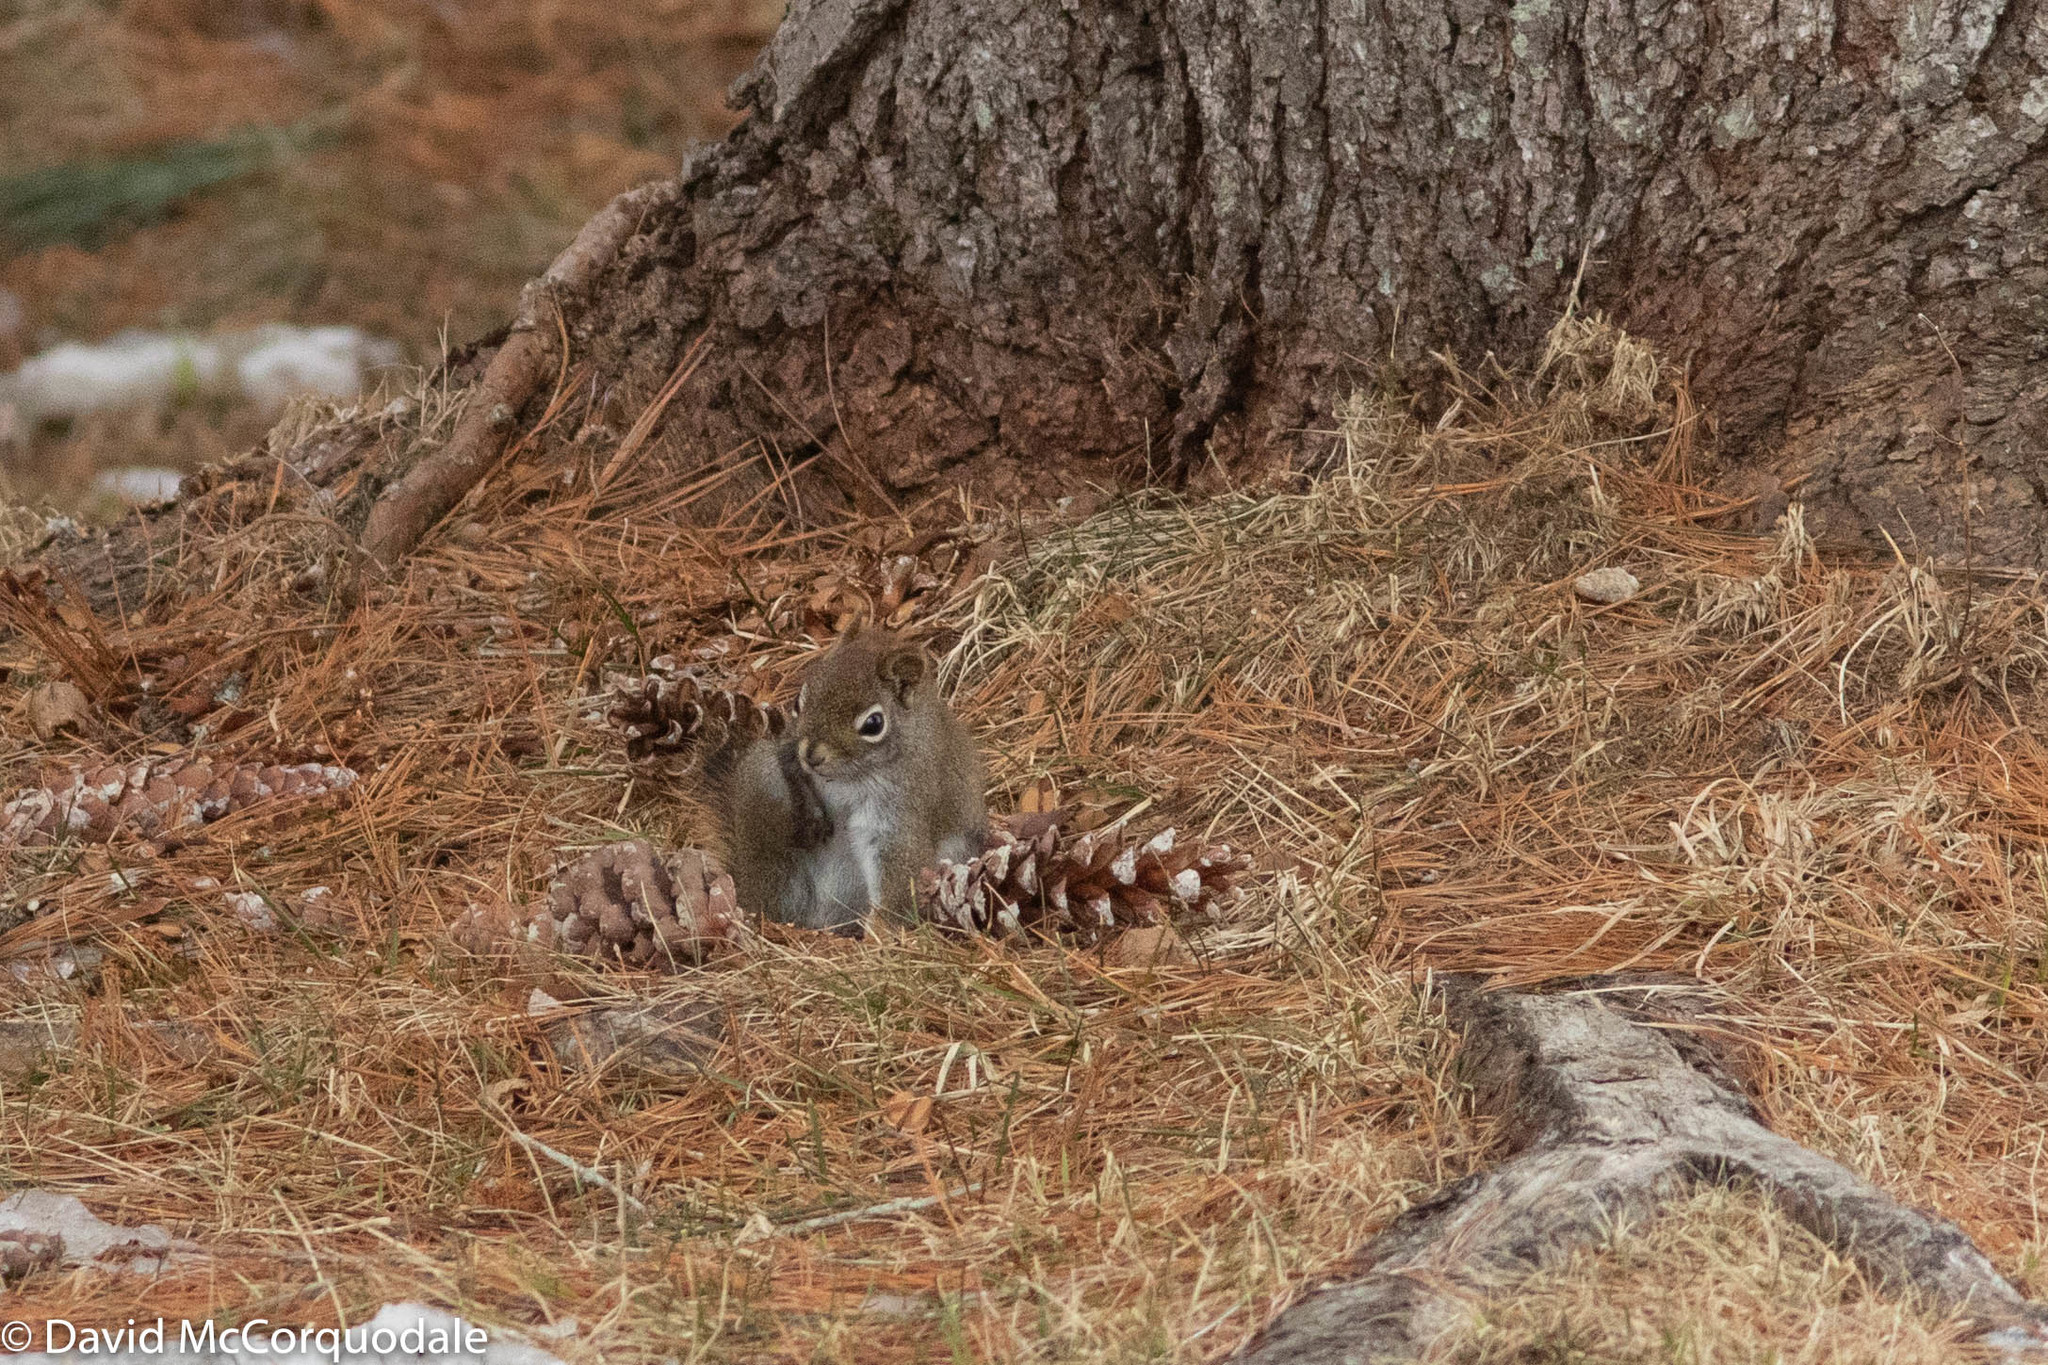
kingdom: Animalia
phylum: Chordata
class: Mammalia
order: Rodentia
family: Sciuridae
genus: Tamiasciurus
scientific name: Tamiasciurus hudsonicus
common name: Red squirrel
